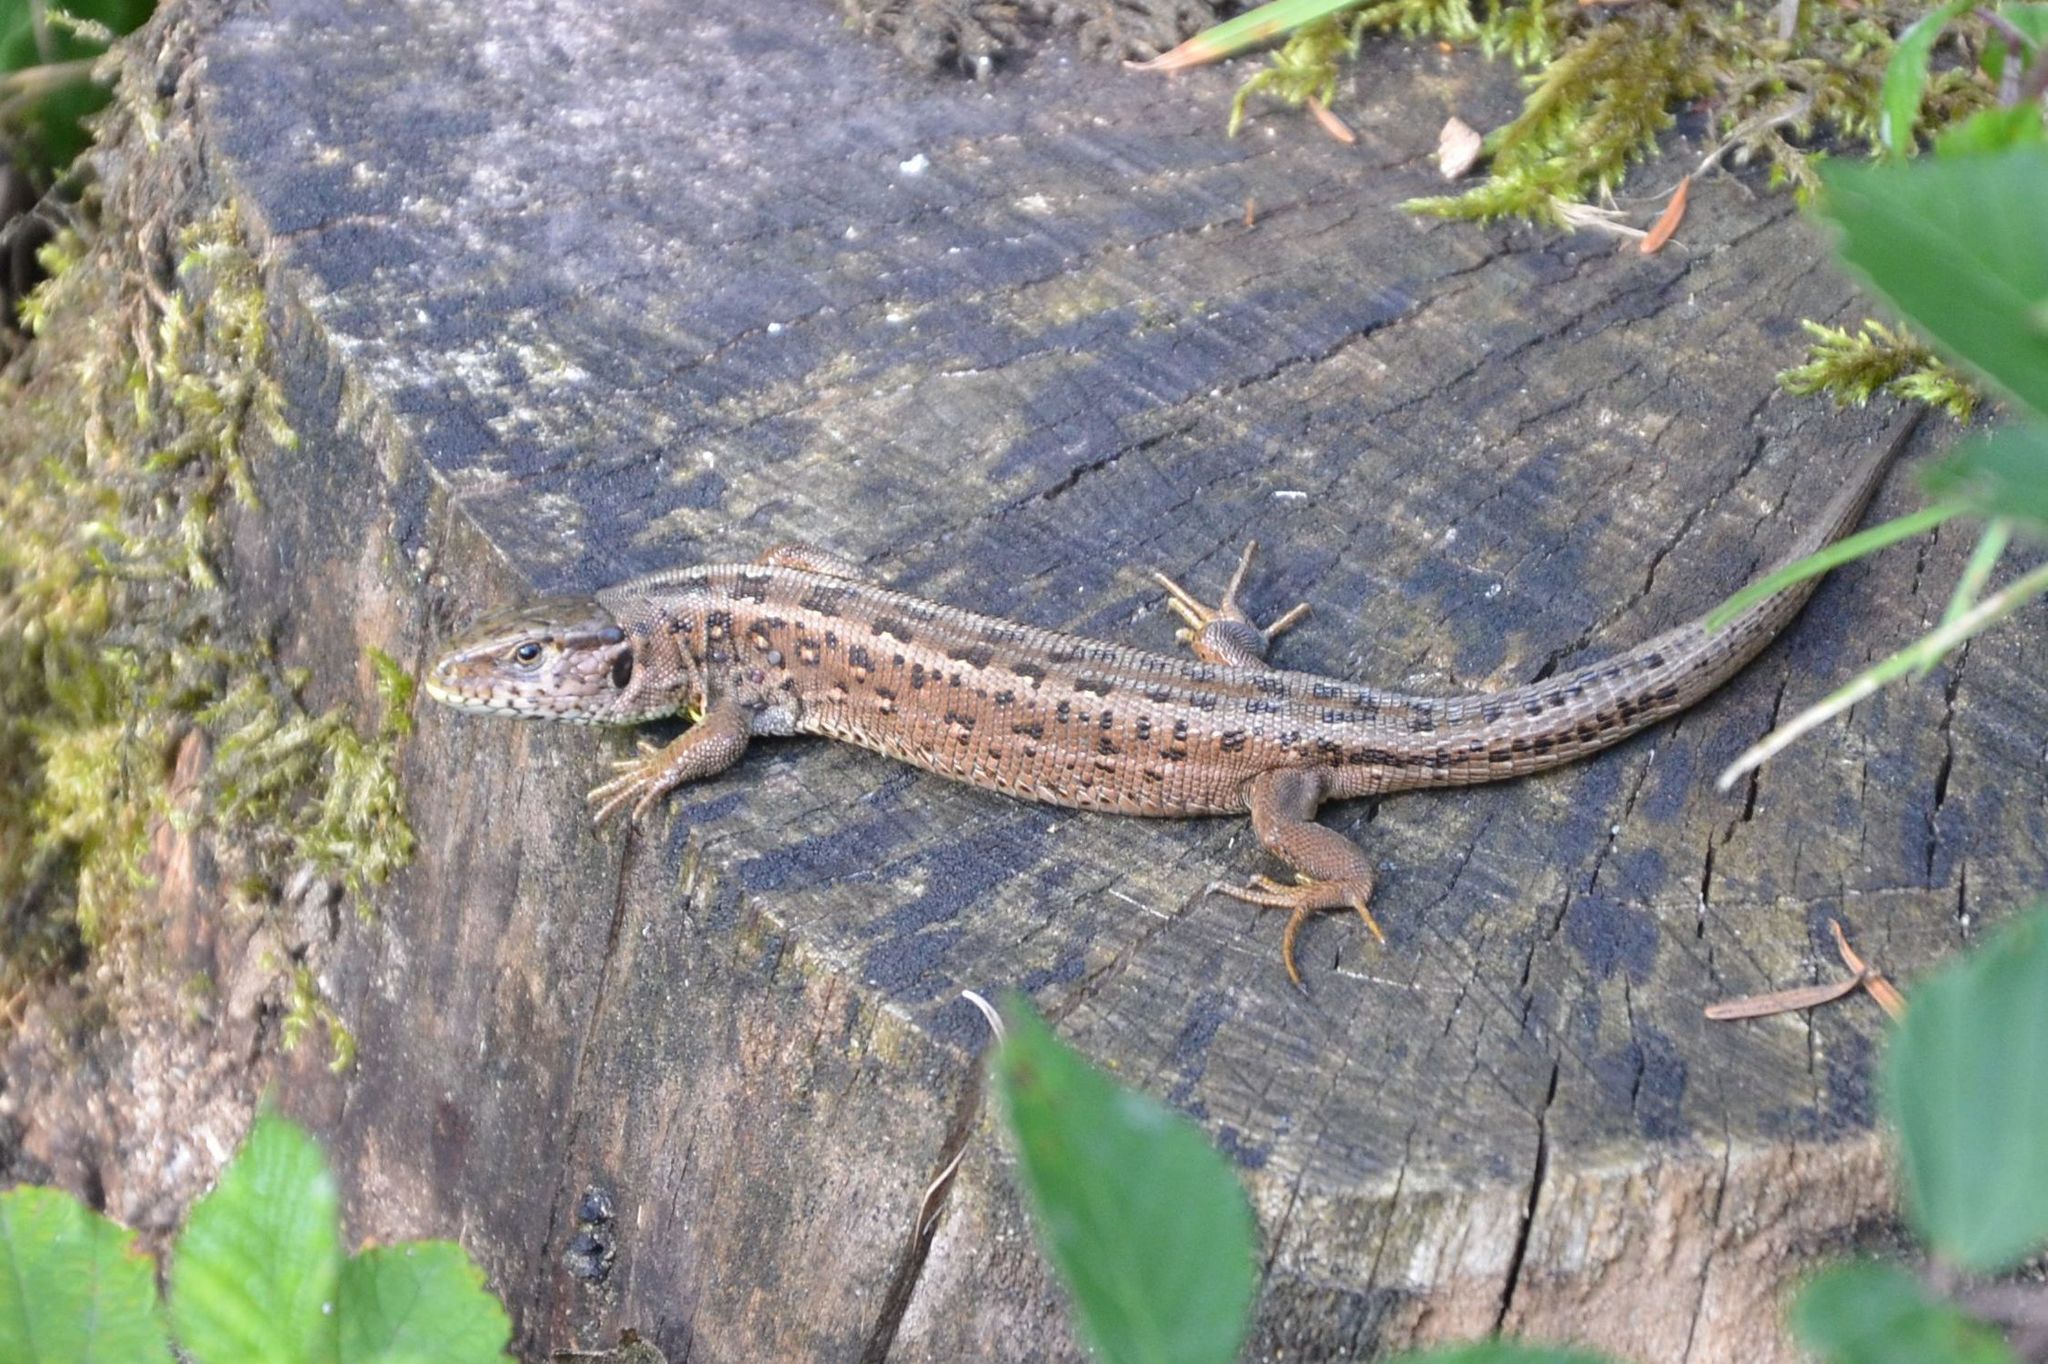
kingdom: Animalia
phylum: Chordata
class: Squamata
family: Lacertidae
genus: Lacerta
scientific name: Lacerta agilis
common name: Sand lizard
